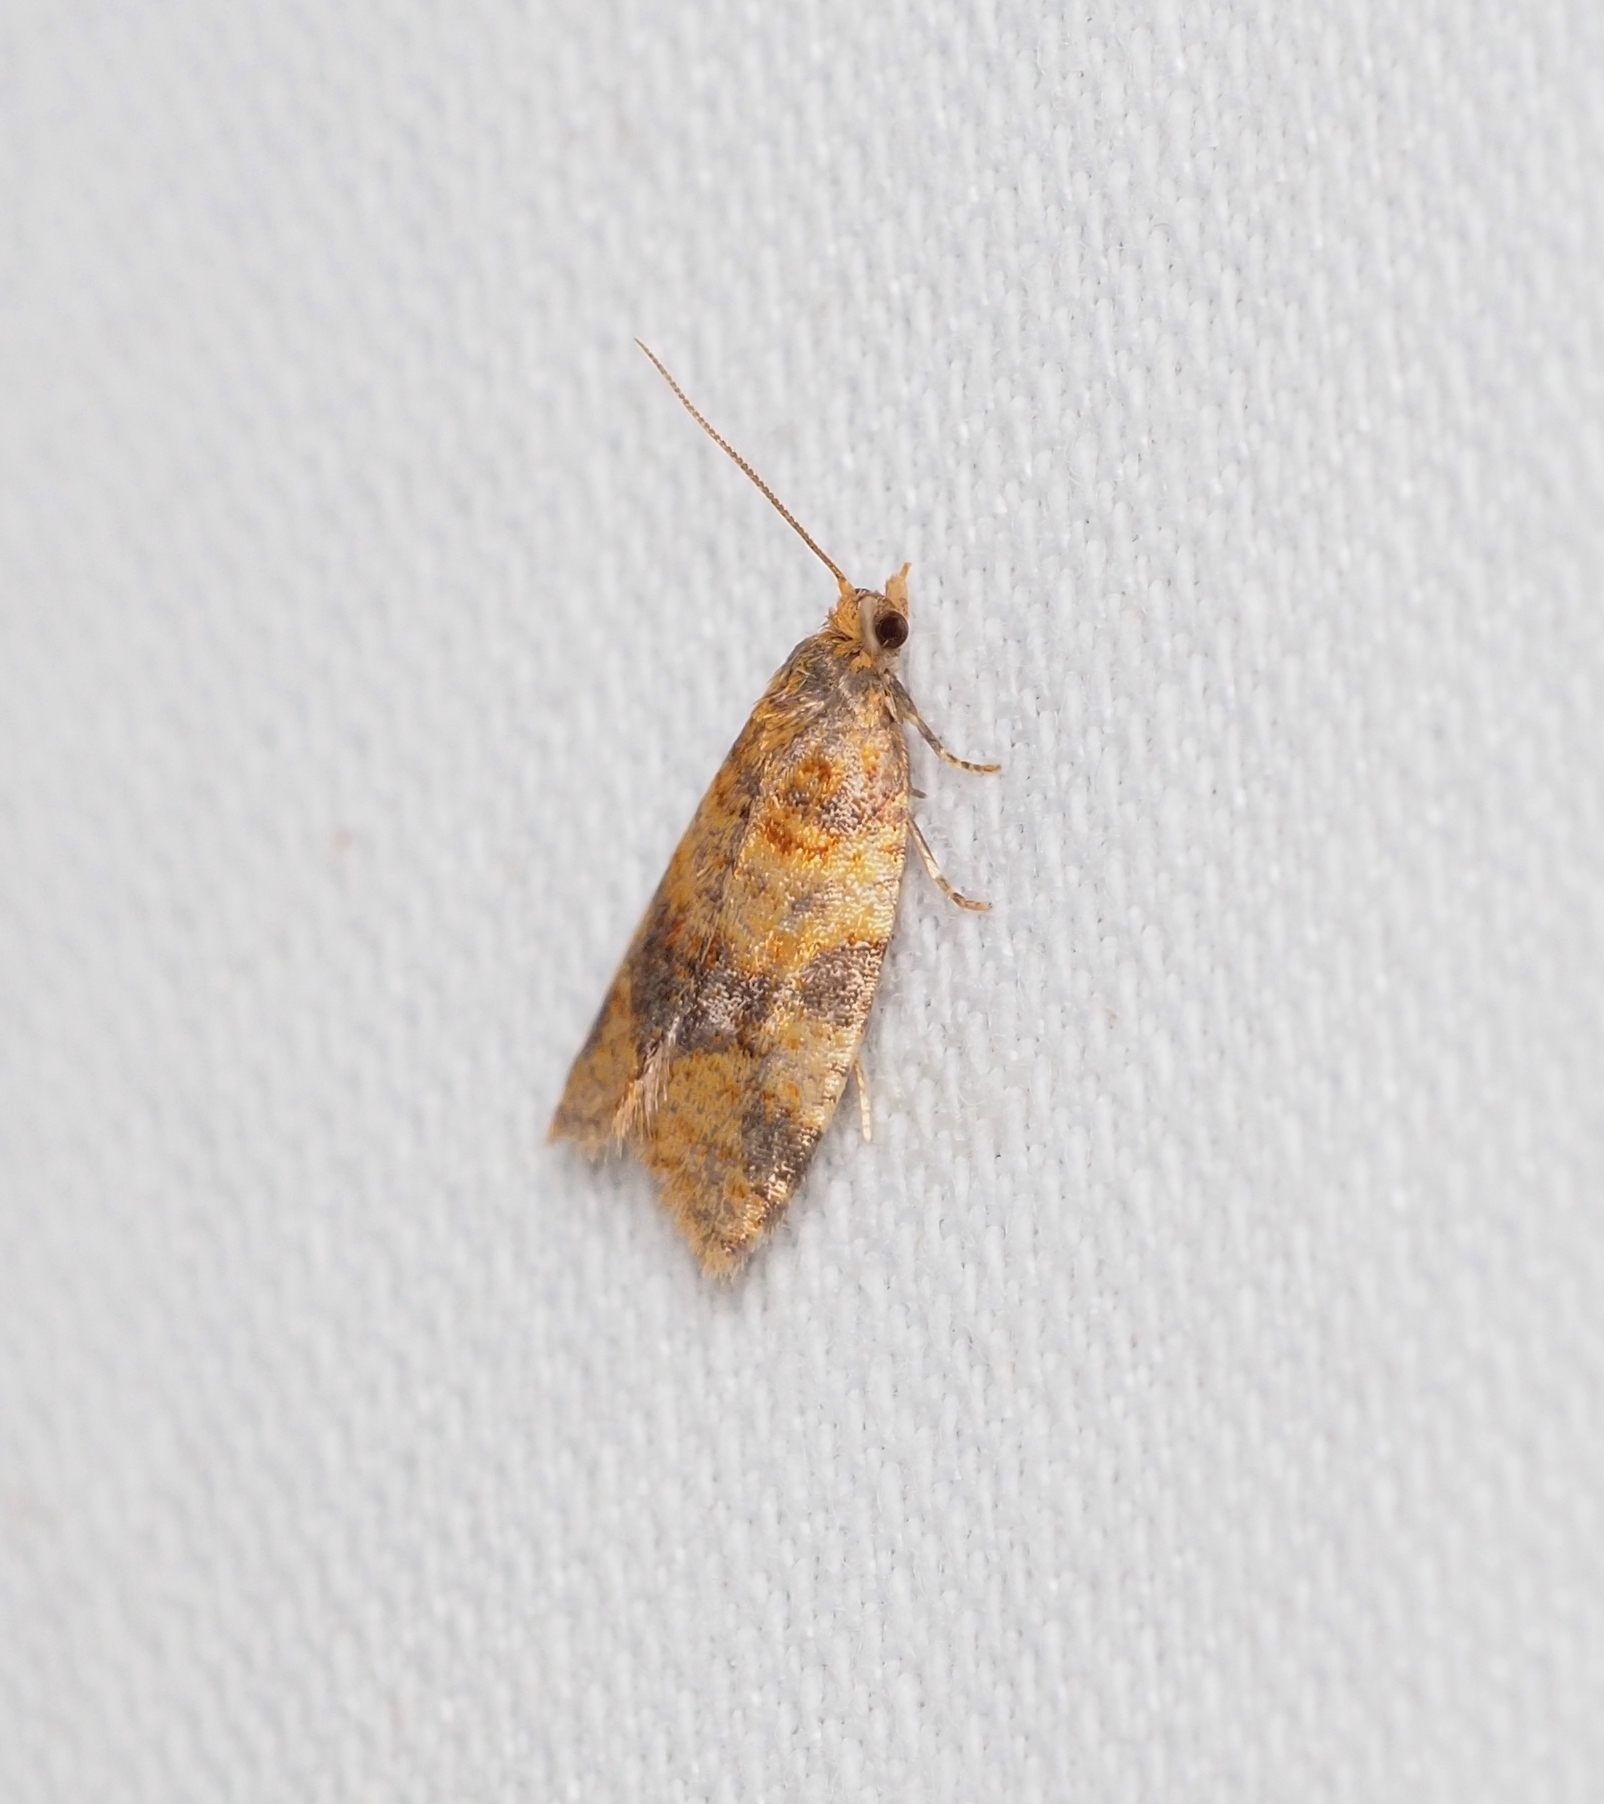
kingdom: Animalia
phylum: Arthropoda
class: Insecta
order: Lepidoptera
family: Tortricidae
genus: Epagoge
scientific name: Epagoge grotiana
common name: Brown-barred twist
